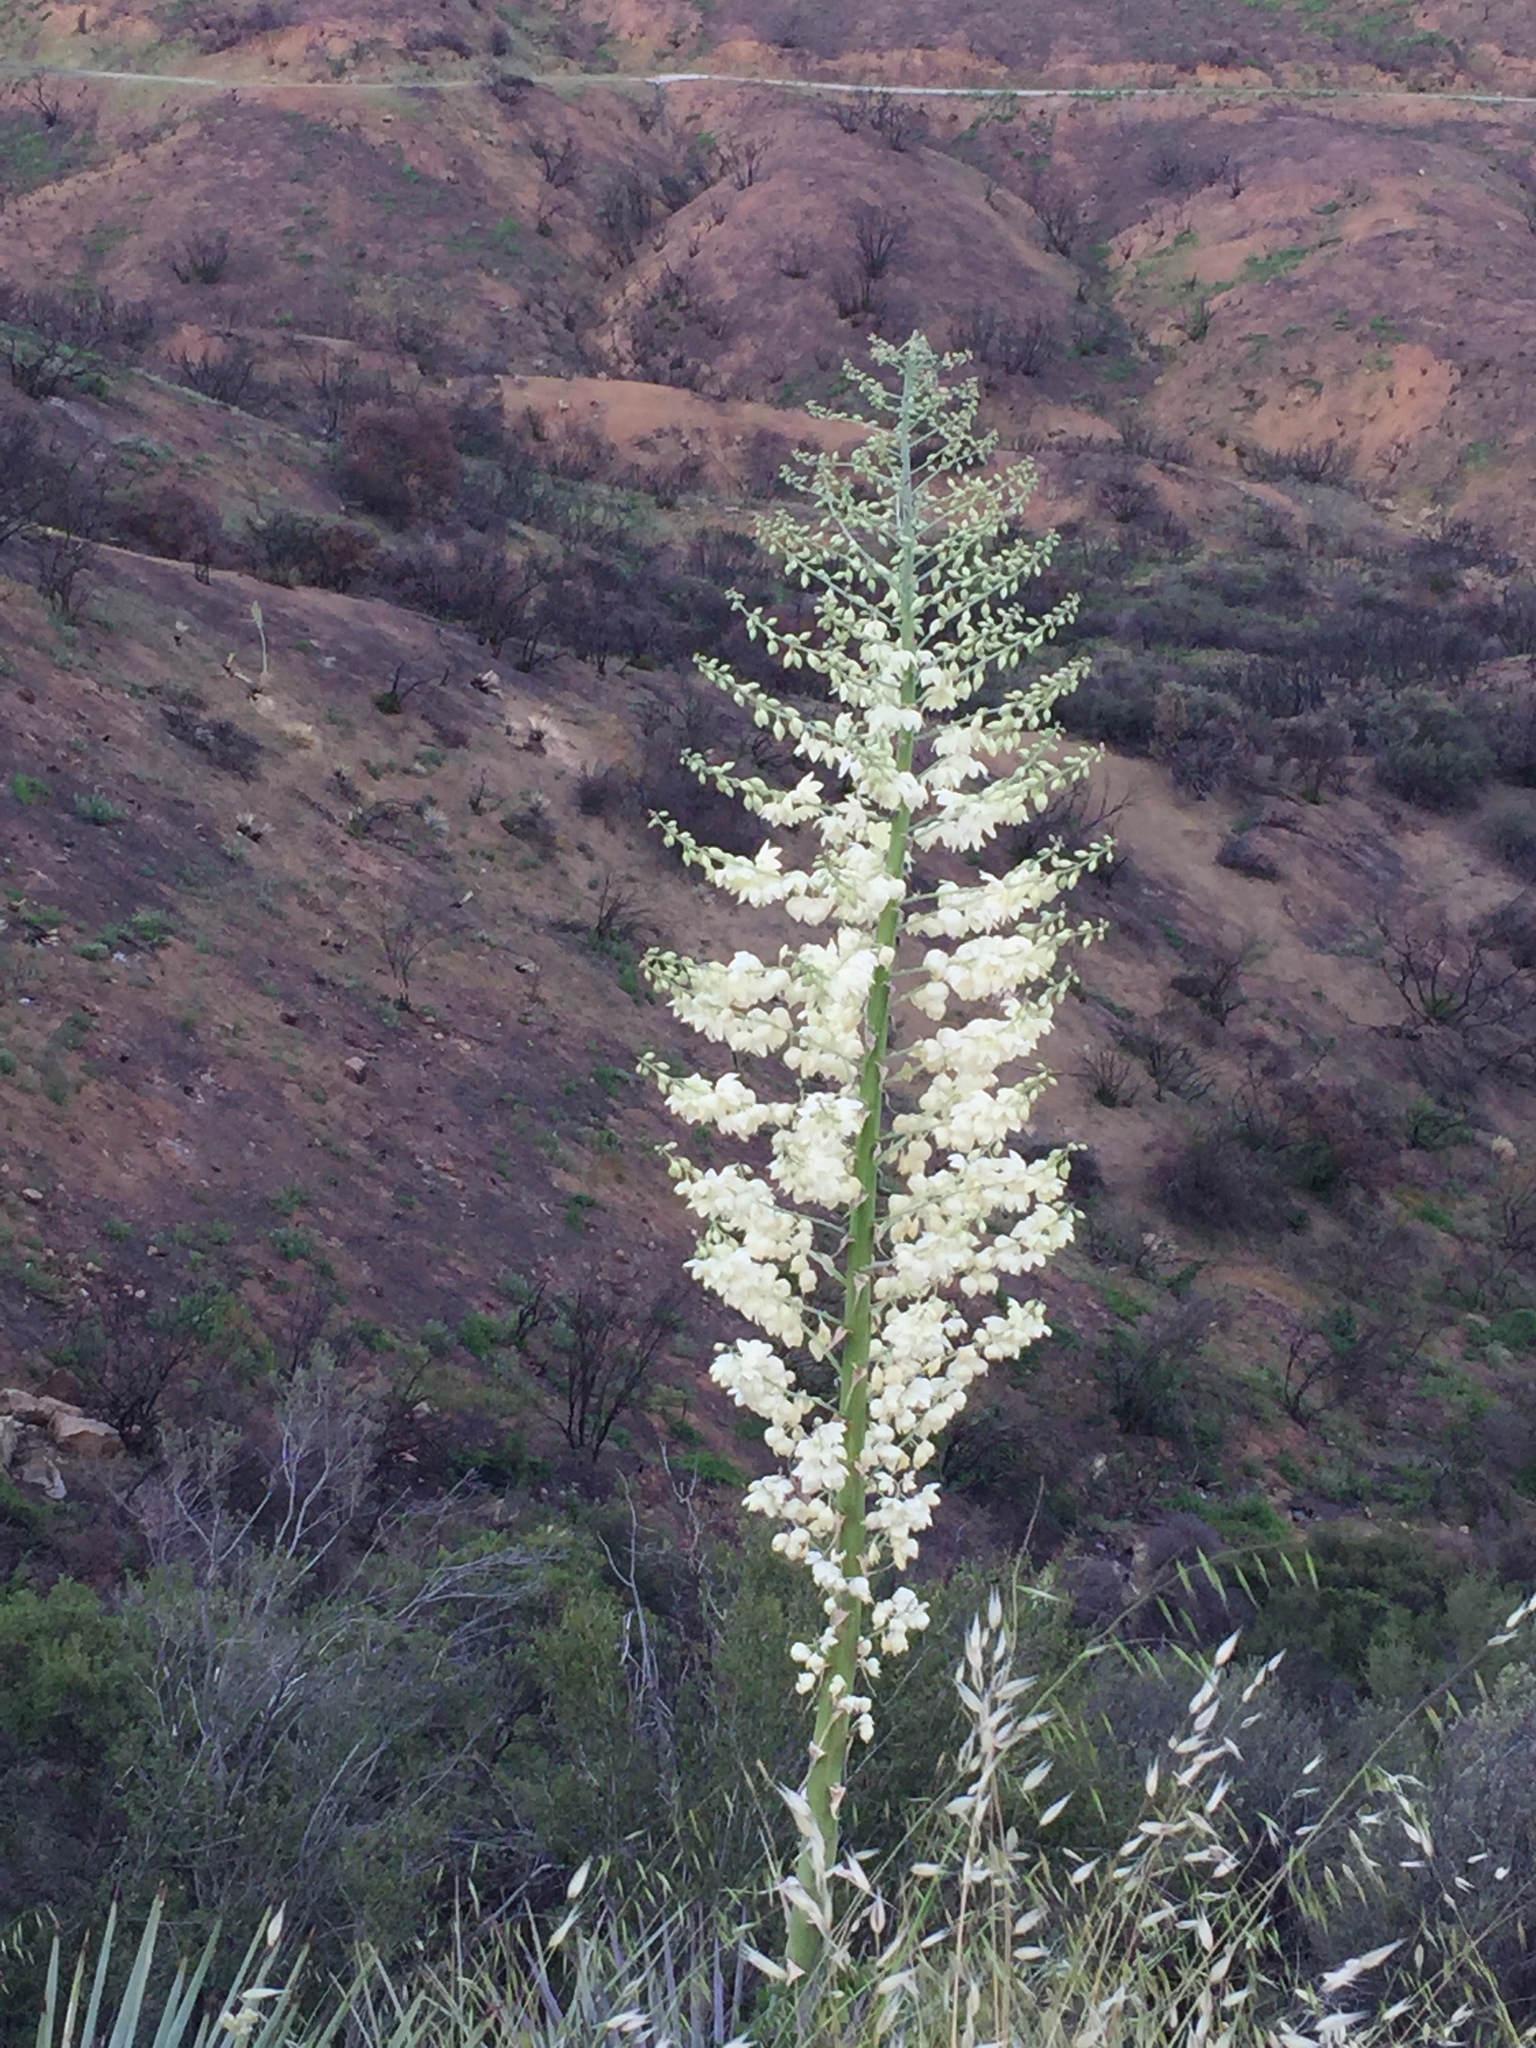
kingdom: Plantae
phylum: Tracheophyta
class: Liliopsida
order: Asparagales
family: Asparagaceae
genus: Hesperoyucca
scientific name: Hesperoyucca whipplei
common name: Our lord's-candle
